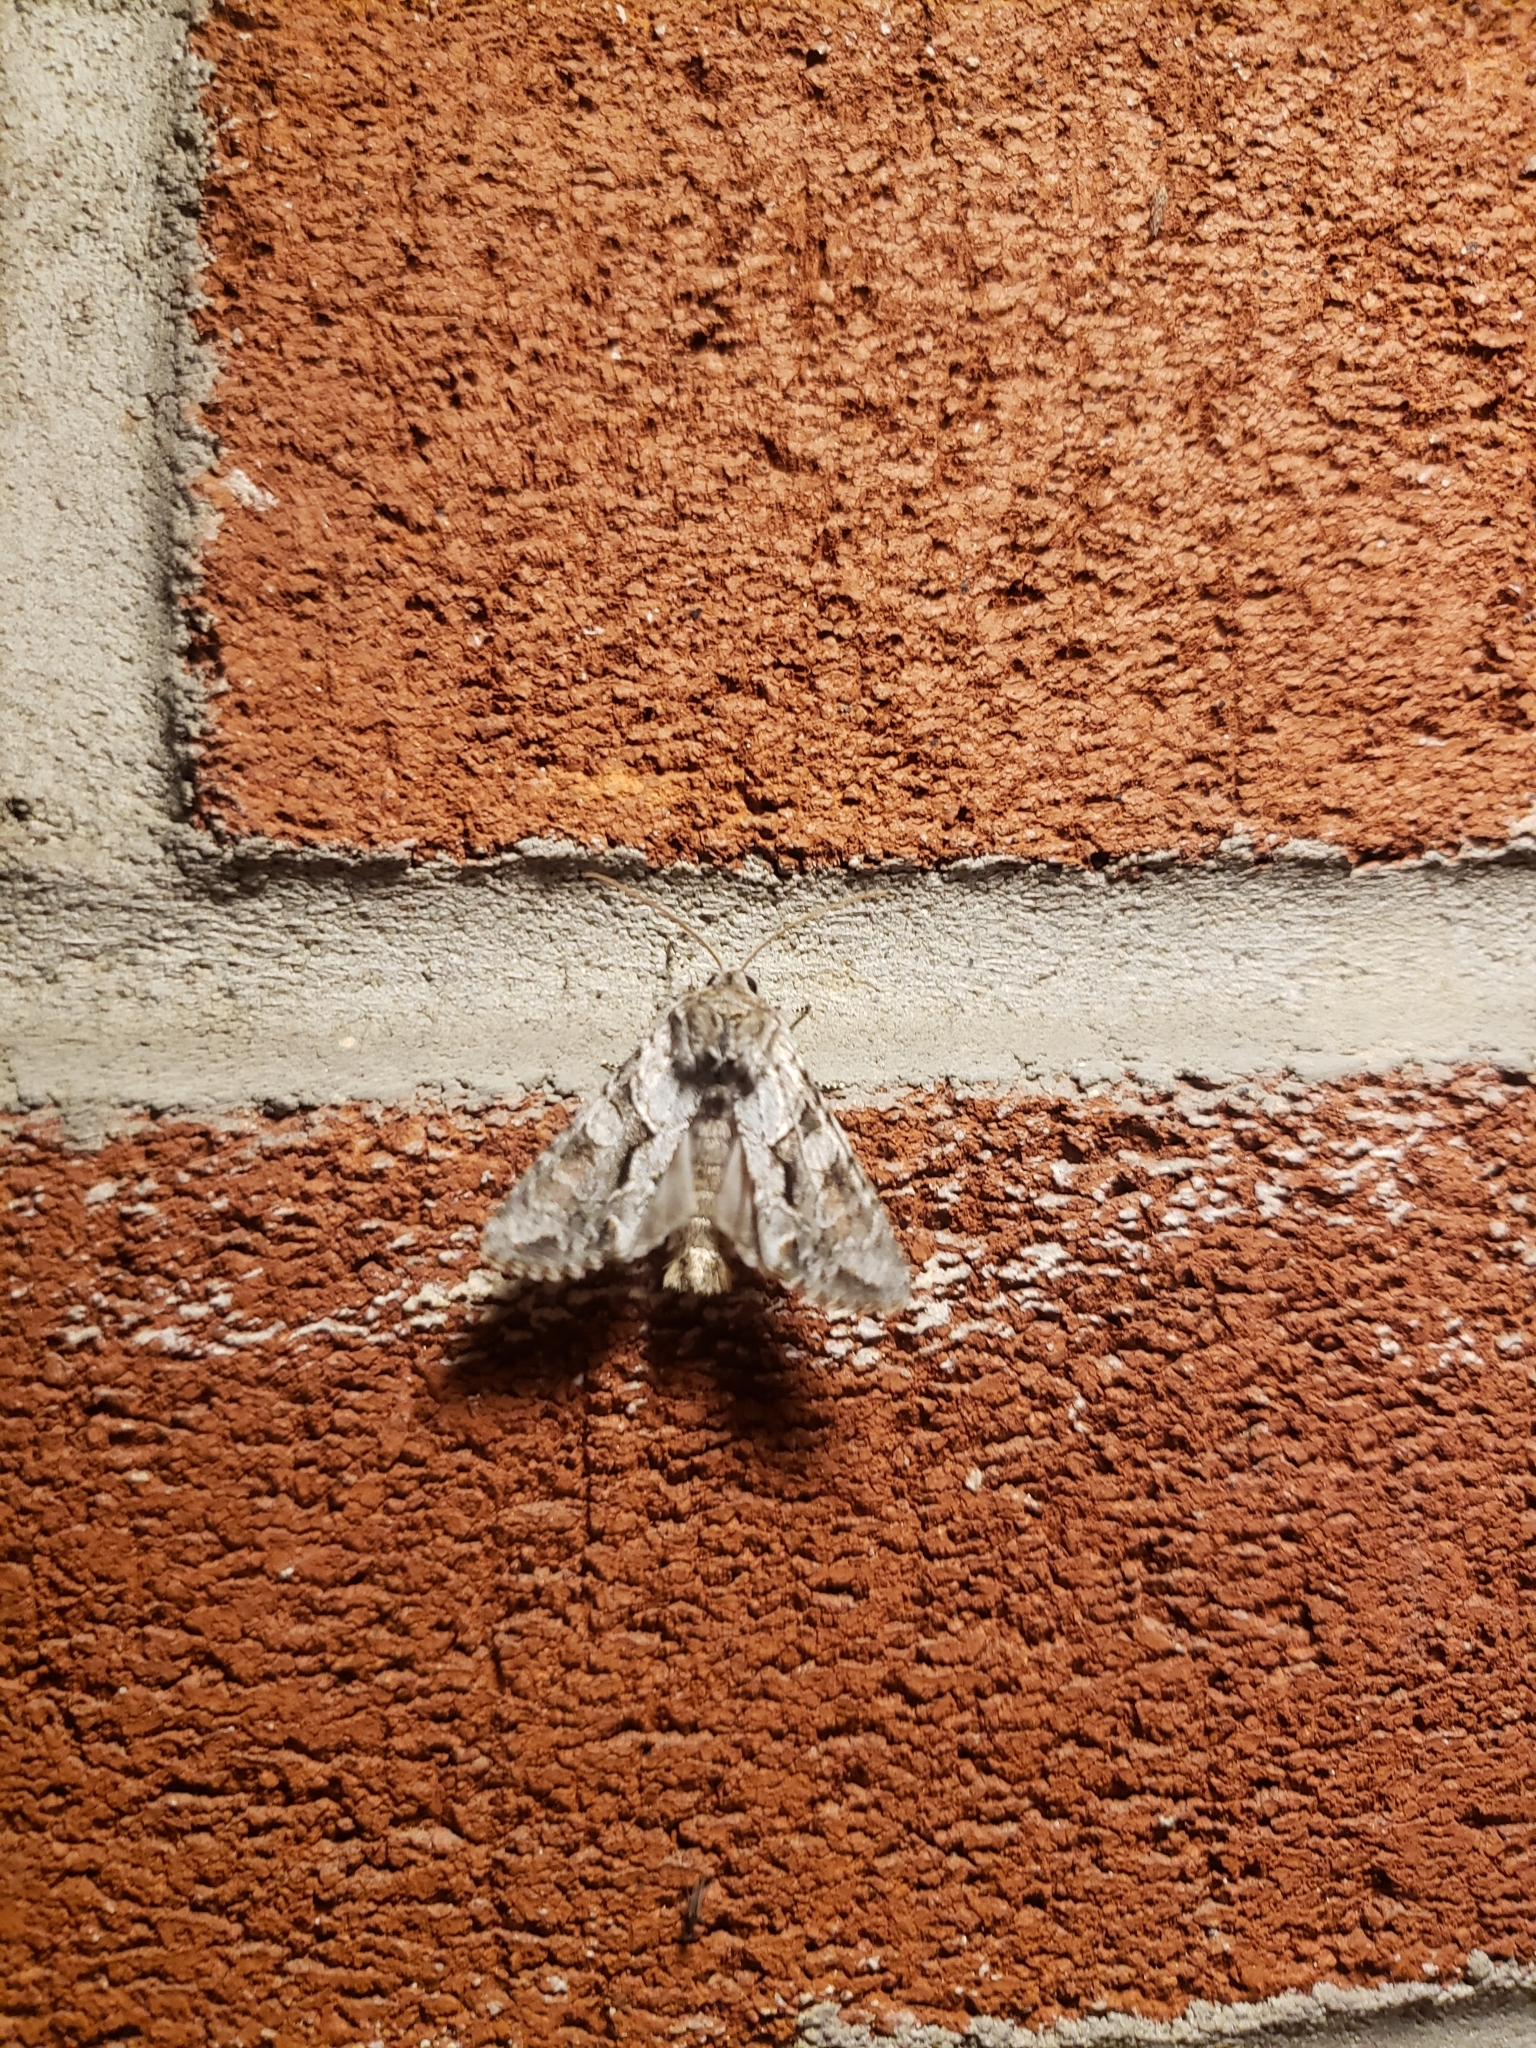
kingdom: Animalia
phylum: Arthropoda
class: Insecta
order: Lepidoptera
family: Noctuidae
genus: Achatia
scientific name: Achatia distincta
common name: Distinct quaker
